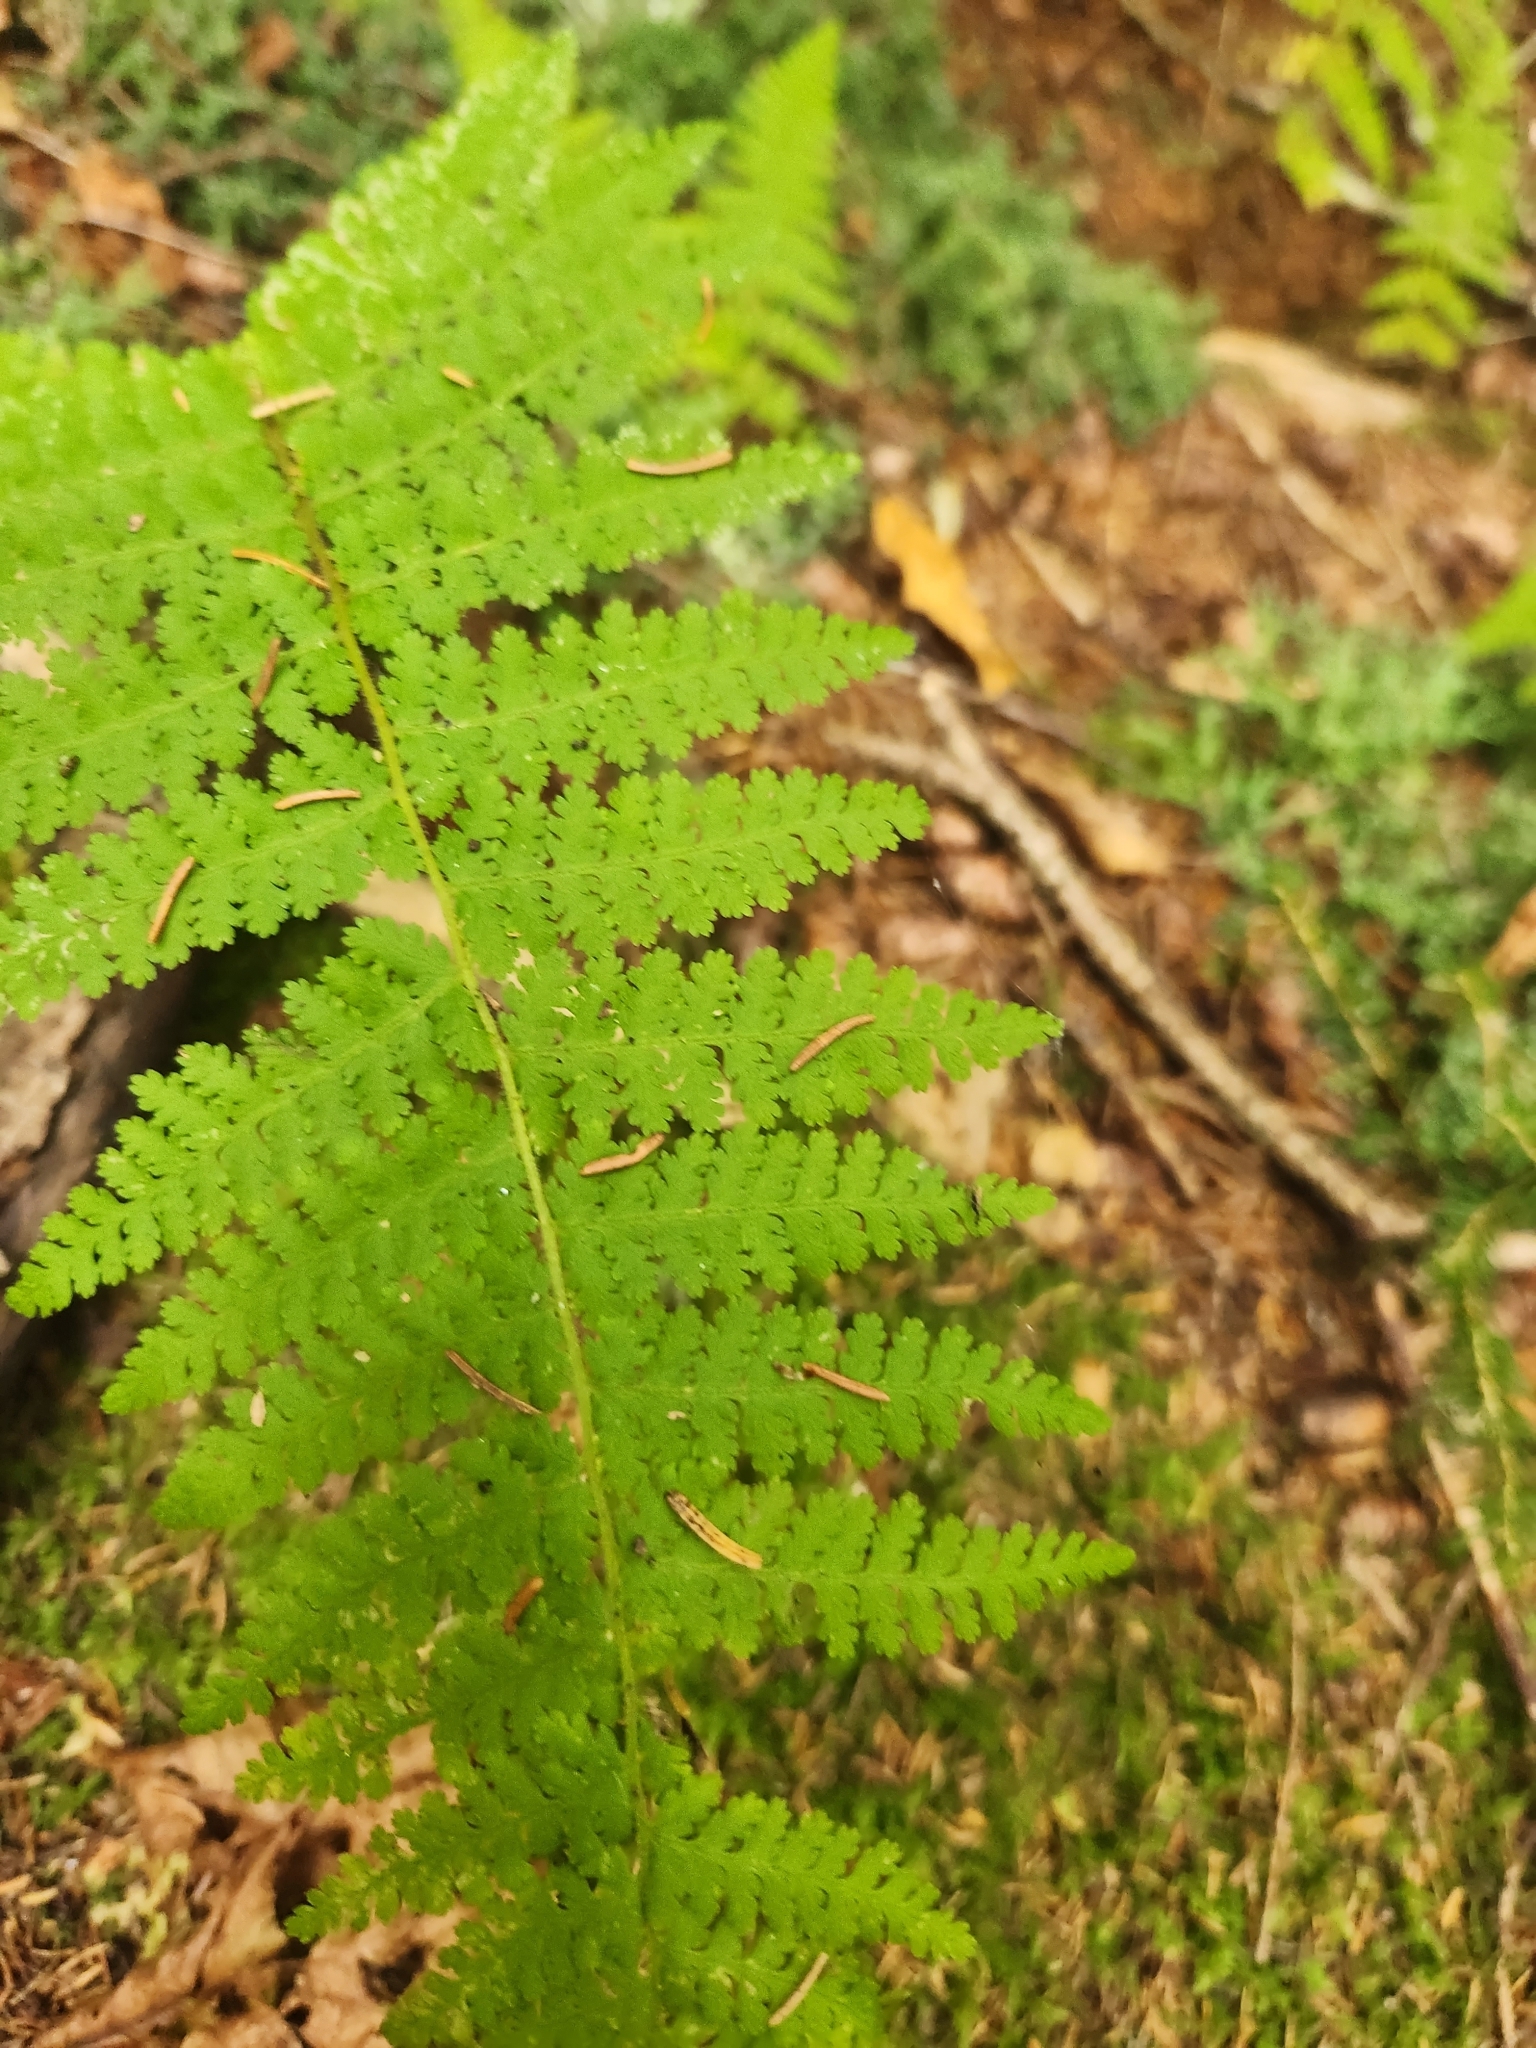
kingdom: Plantae
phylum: Tracheophyta
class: Polypodiopsida
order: Polypodiales
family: Dennstaedtiaceae
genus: Sitobolium
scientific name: Sitobolium punctilobum
